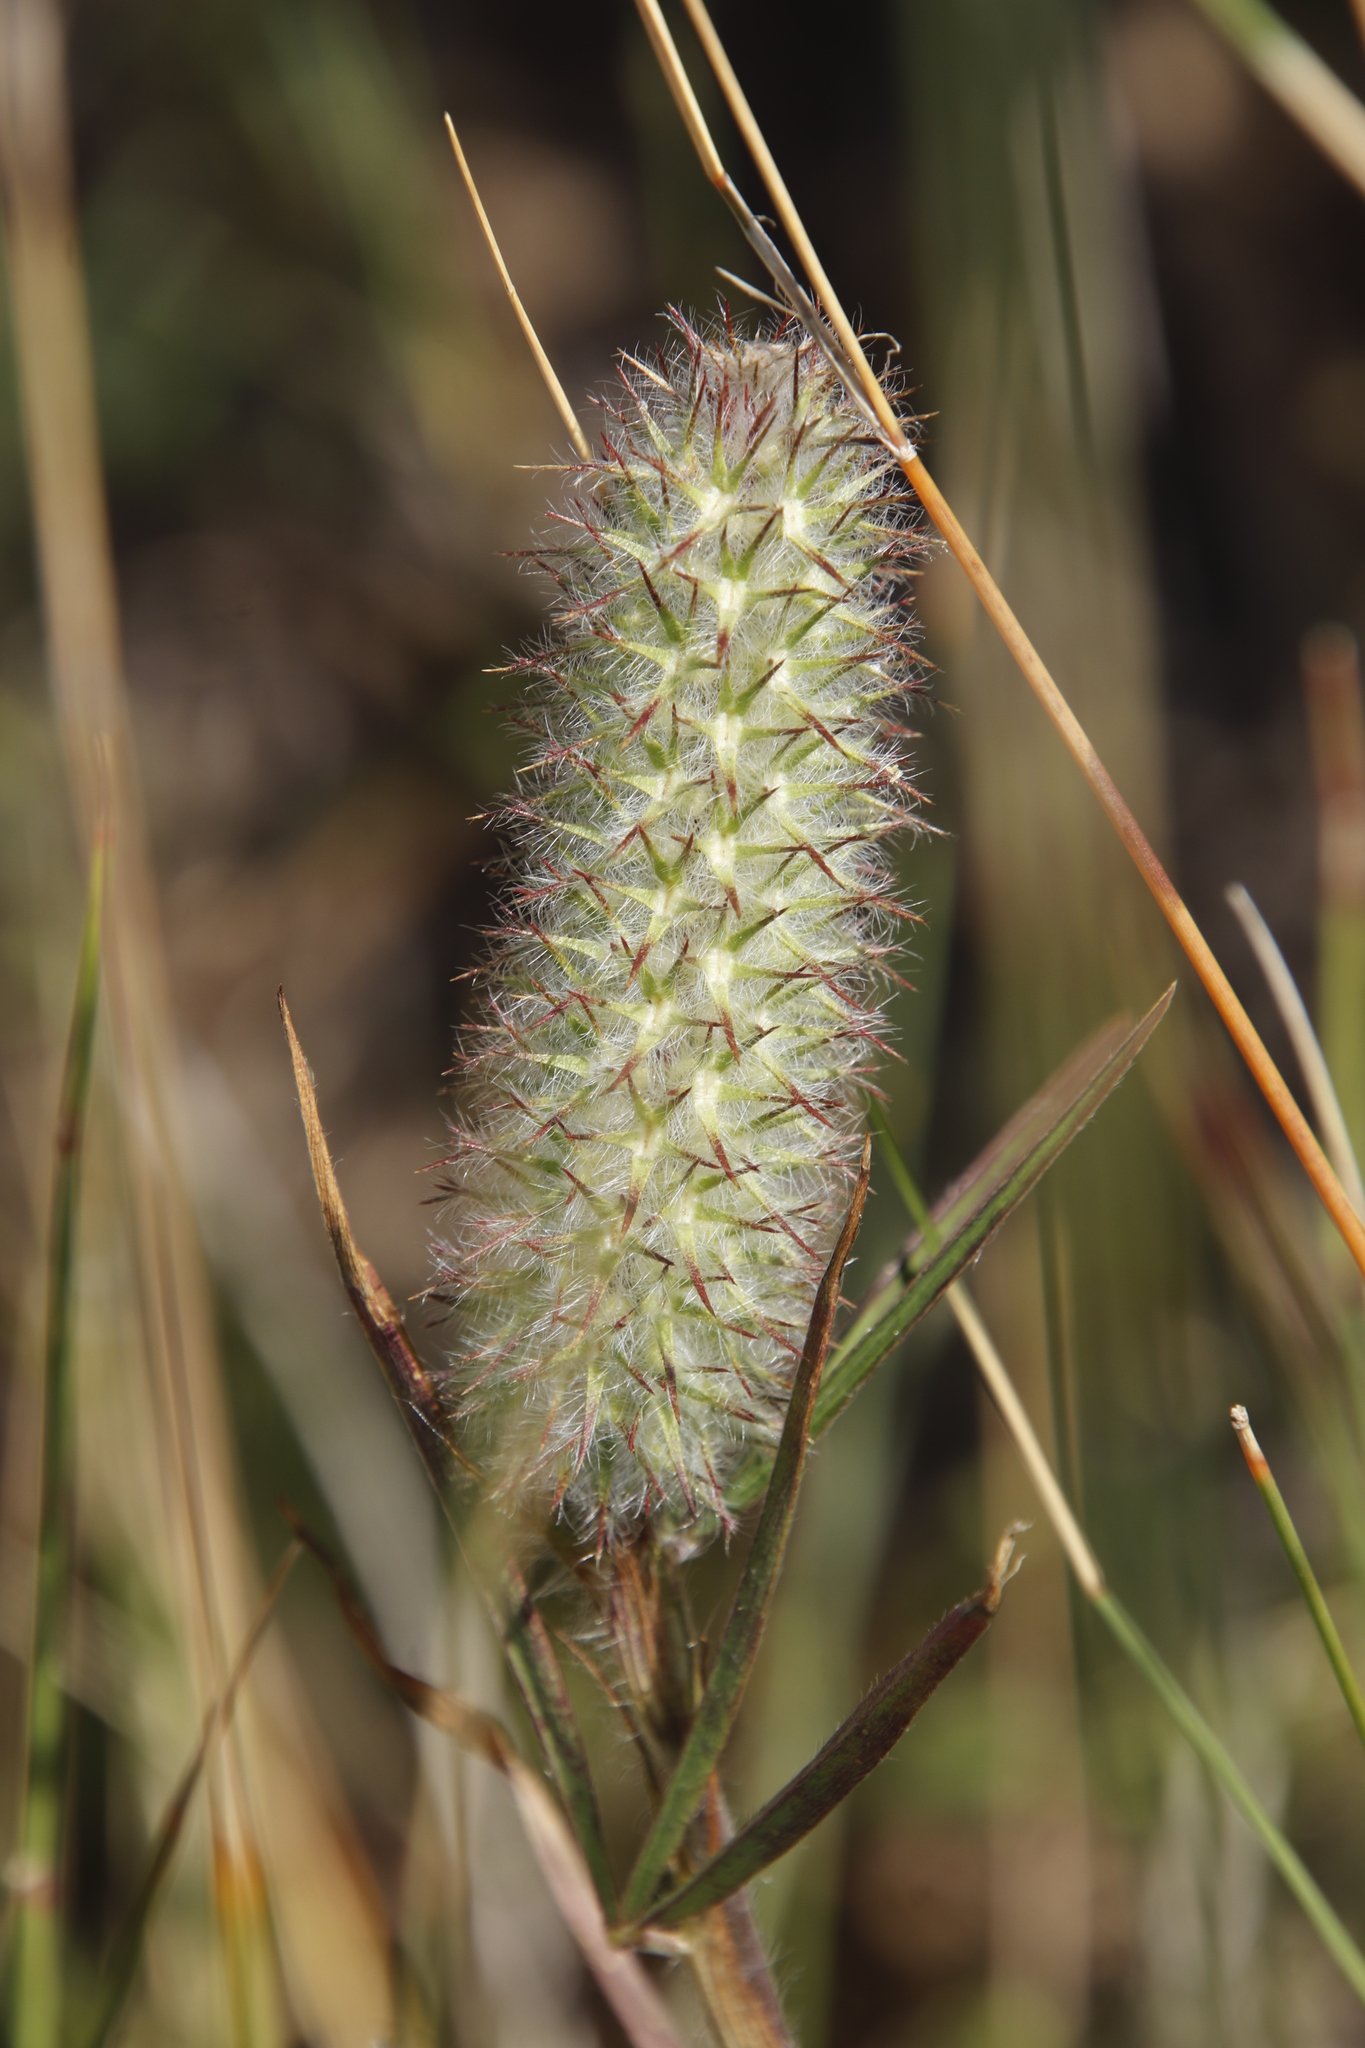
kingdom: Plantae
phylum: Tracheophyta
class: Magnoliopsida
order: Fabales
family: Fabaceae
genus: Trifolium
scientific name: Trifolium angustifolium
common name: Narrow clover
